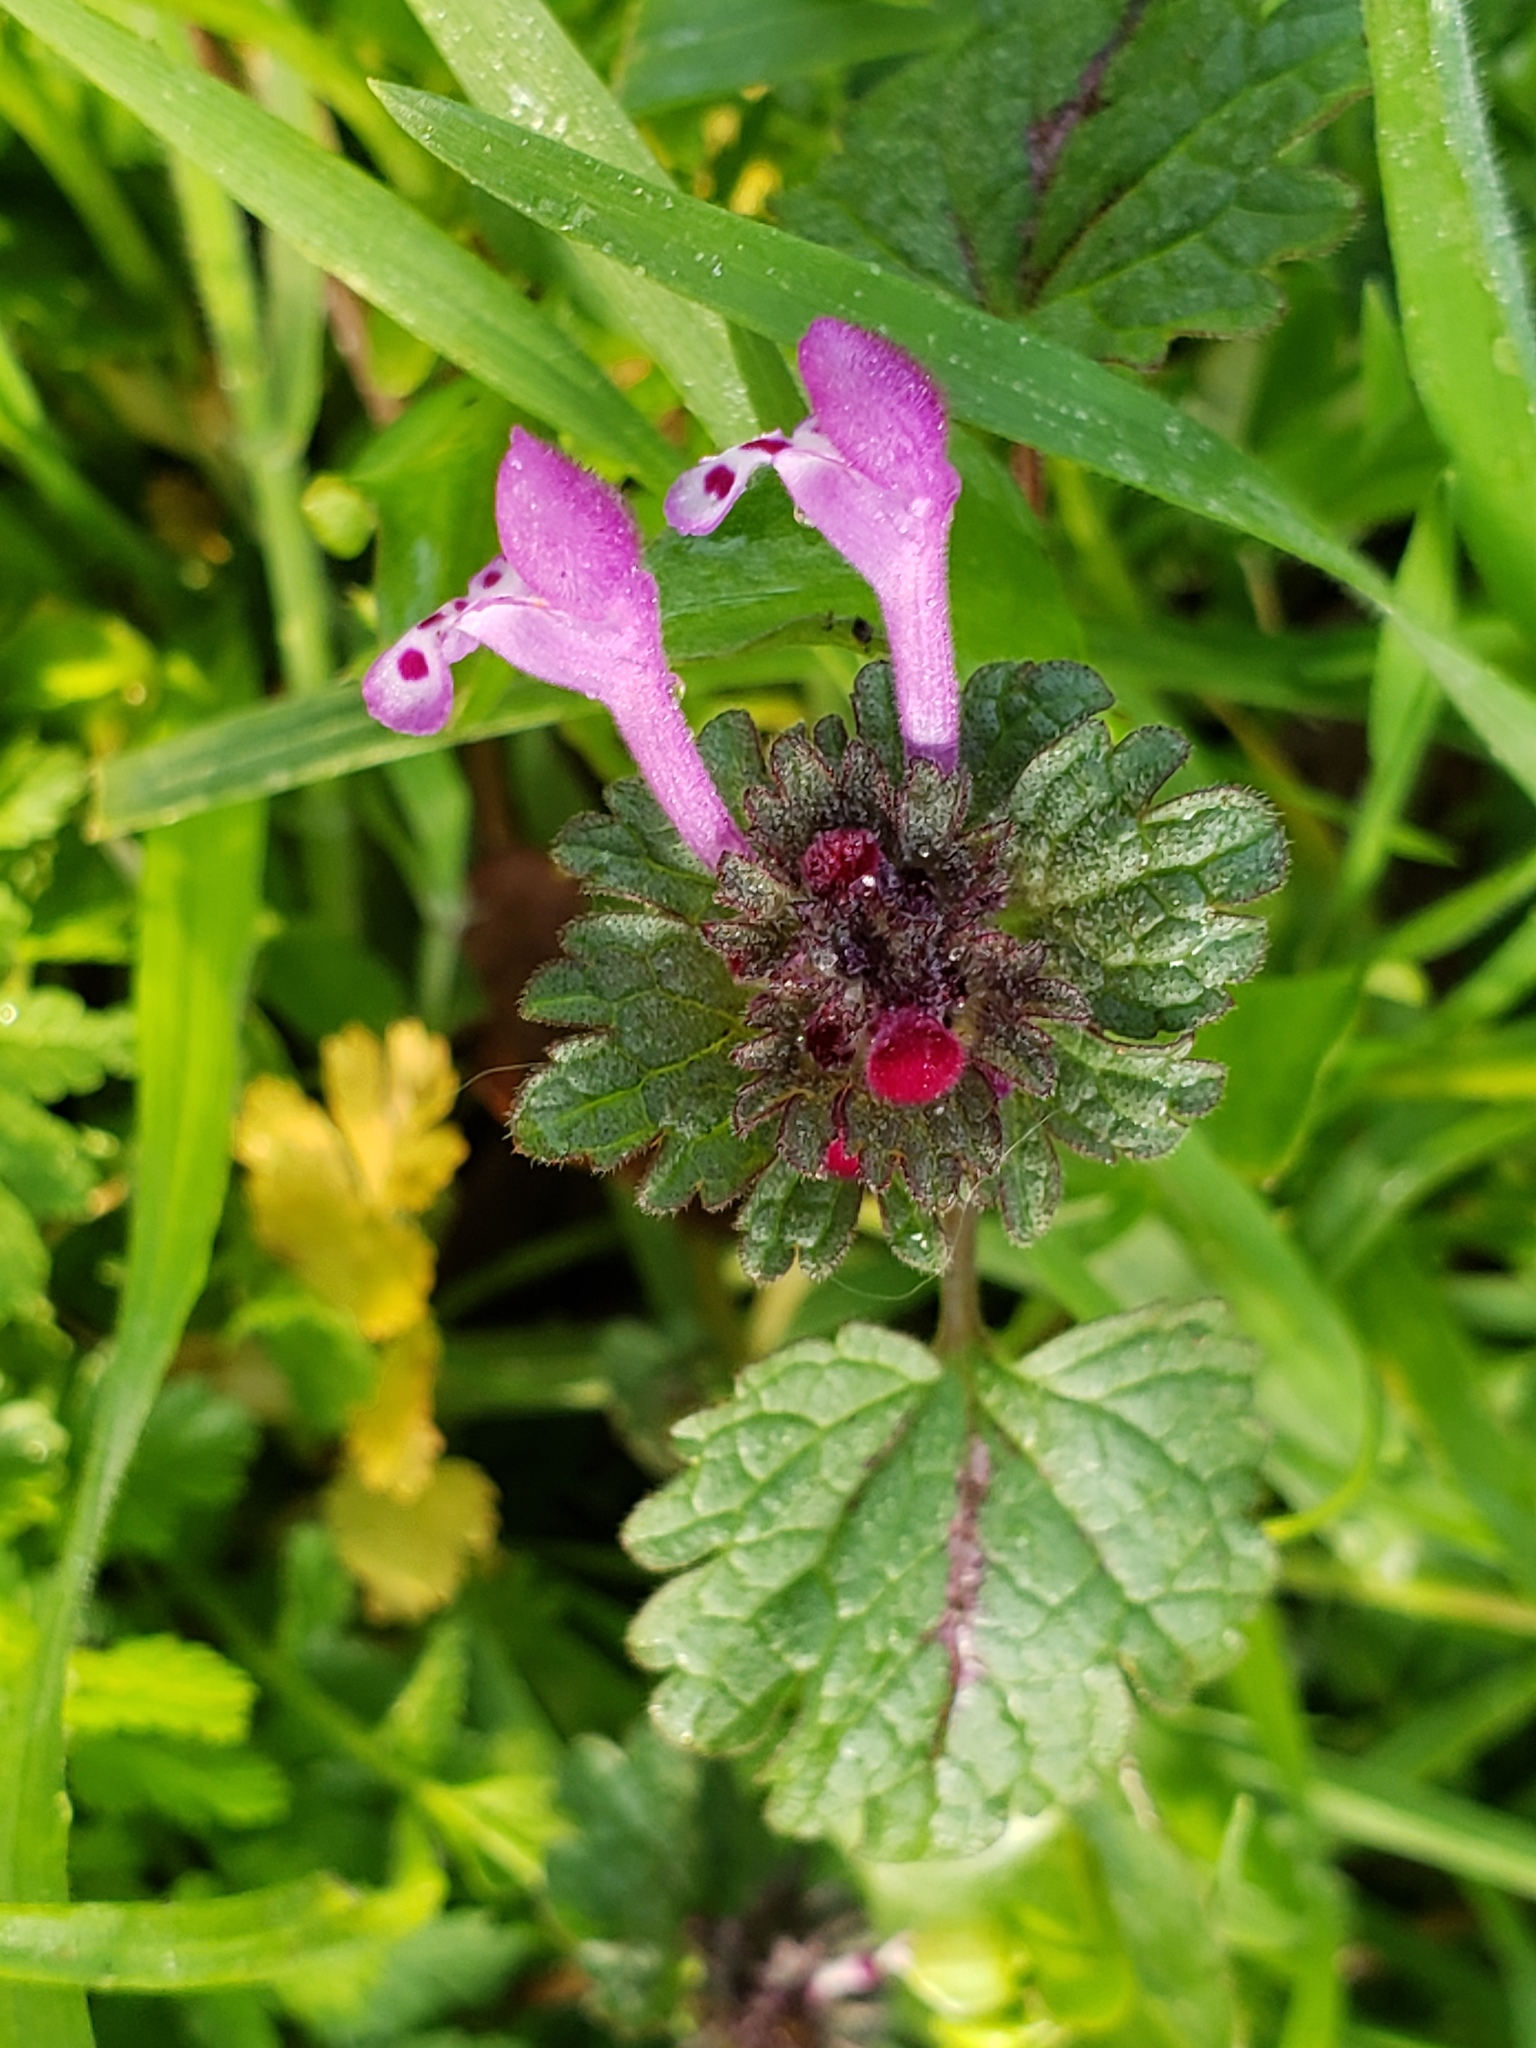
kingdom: Plantae
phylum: Tracheophyta
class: Magnoliopsida
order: Lamiales
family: Lamiaceae
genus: Lamium
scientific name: Lamium amplexicaule
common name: Henbit dead-nettle
